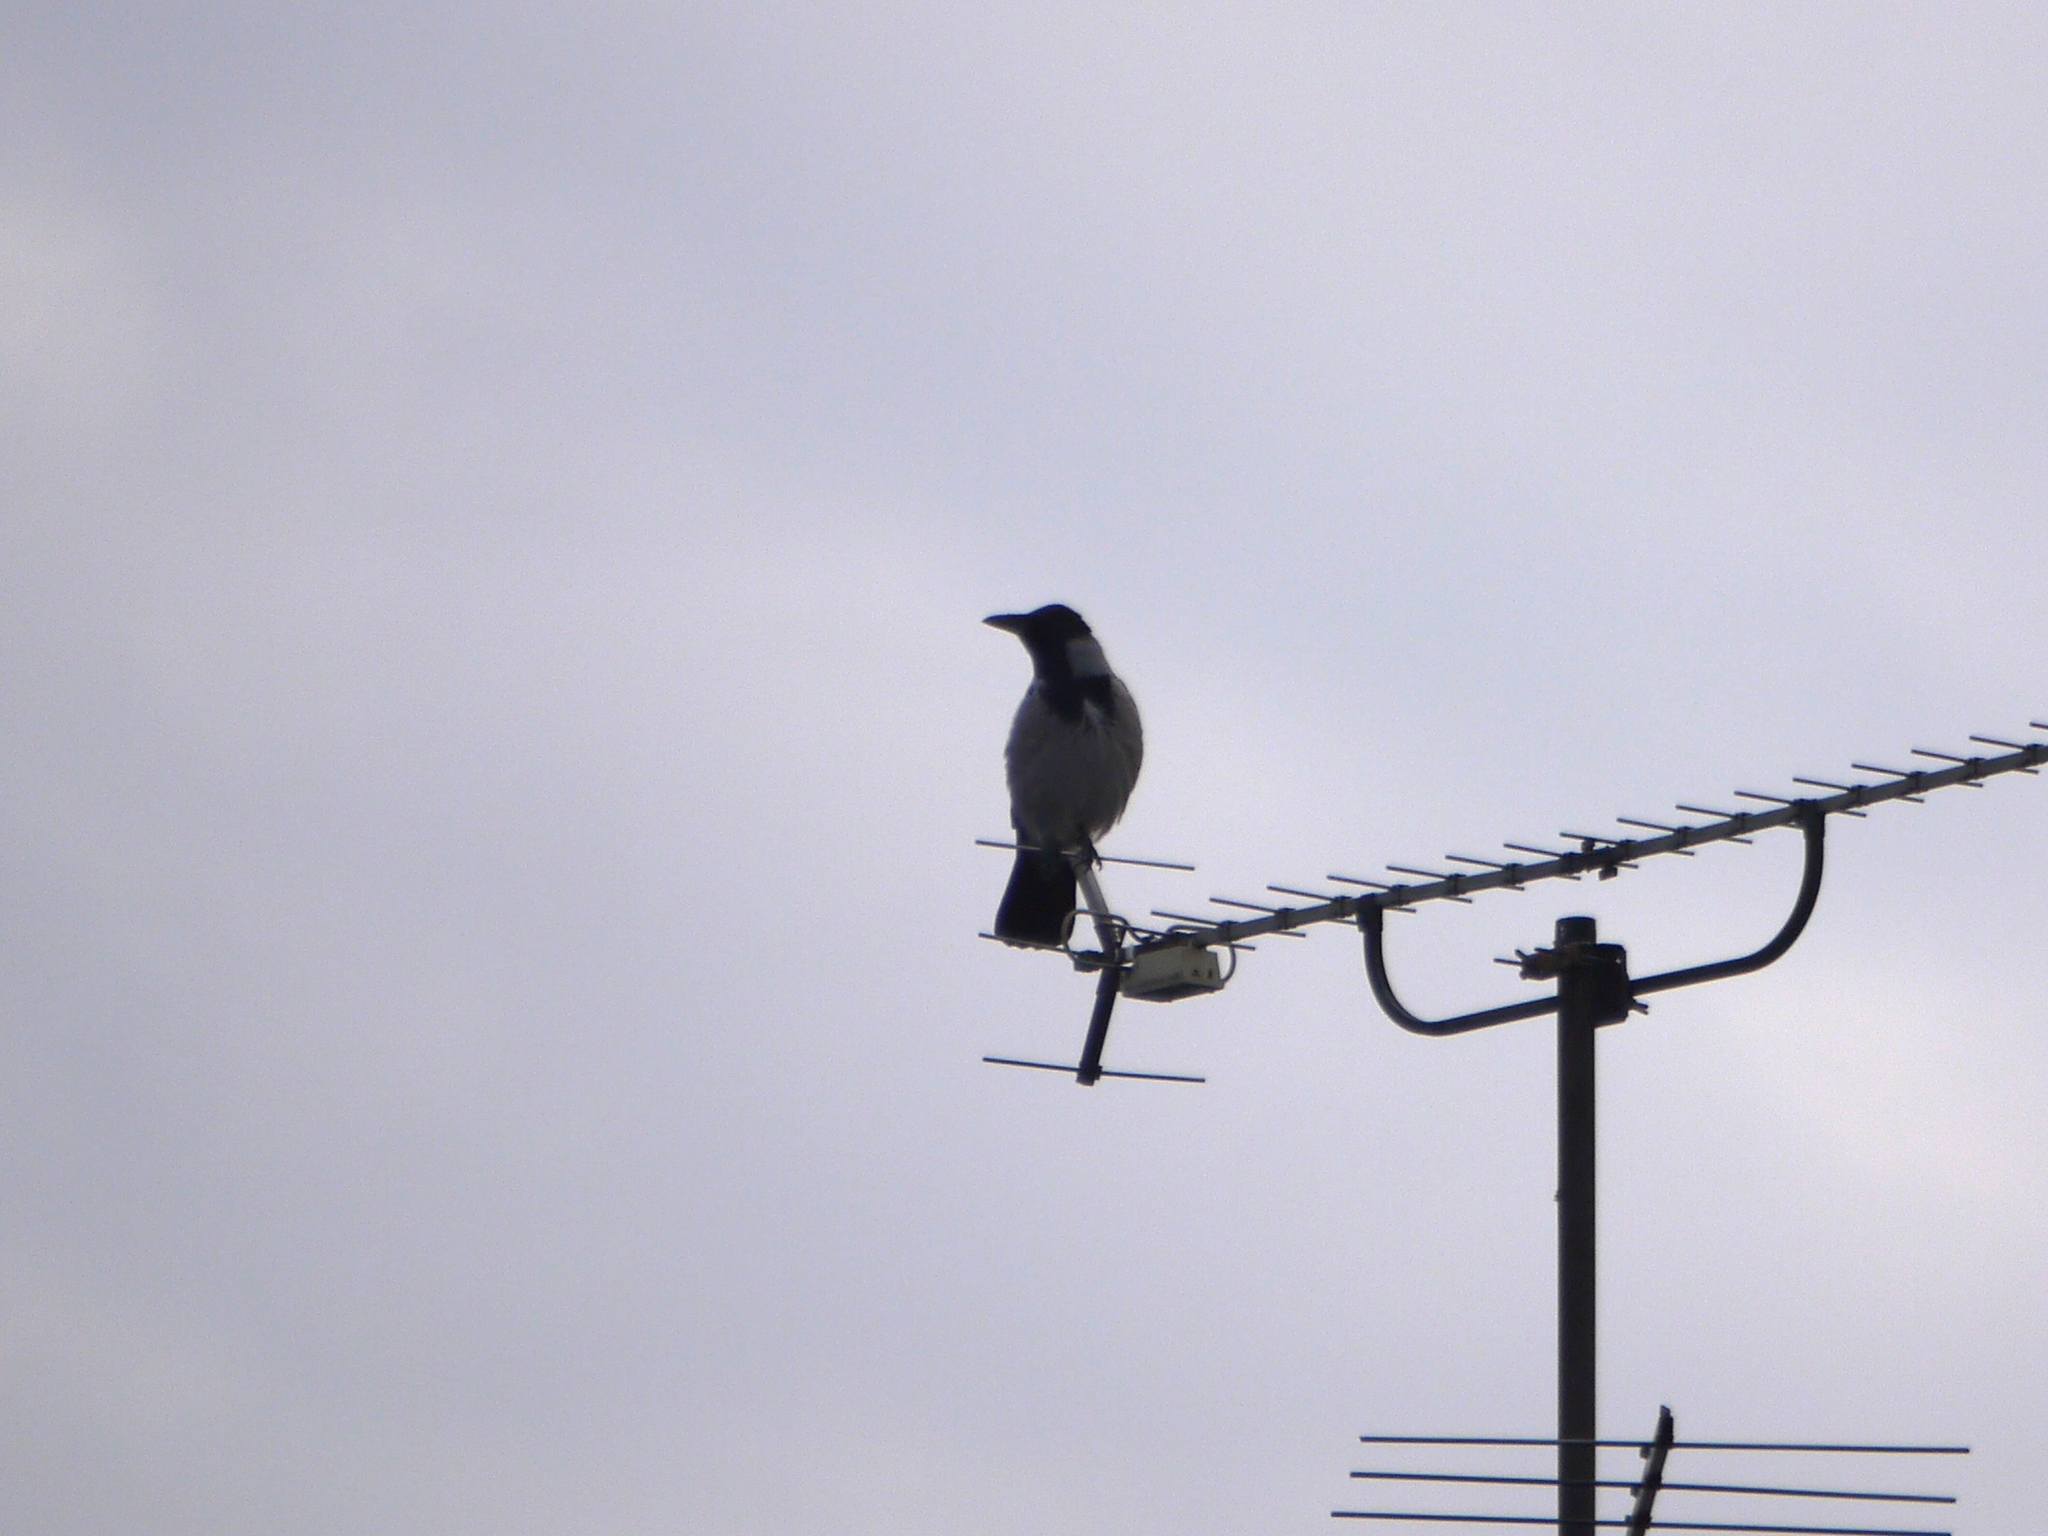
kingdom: Animalia
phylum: Chordata
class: Aves
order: Passeriformes
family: Corvidae
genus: Corvus
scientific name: Corvus cornix
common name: Hooded crow
